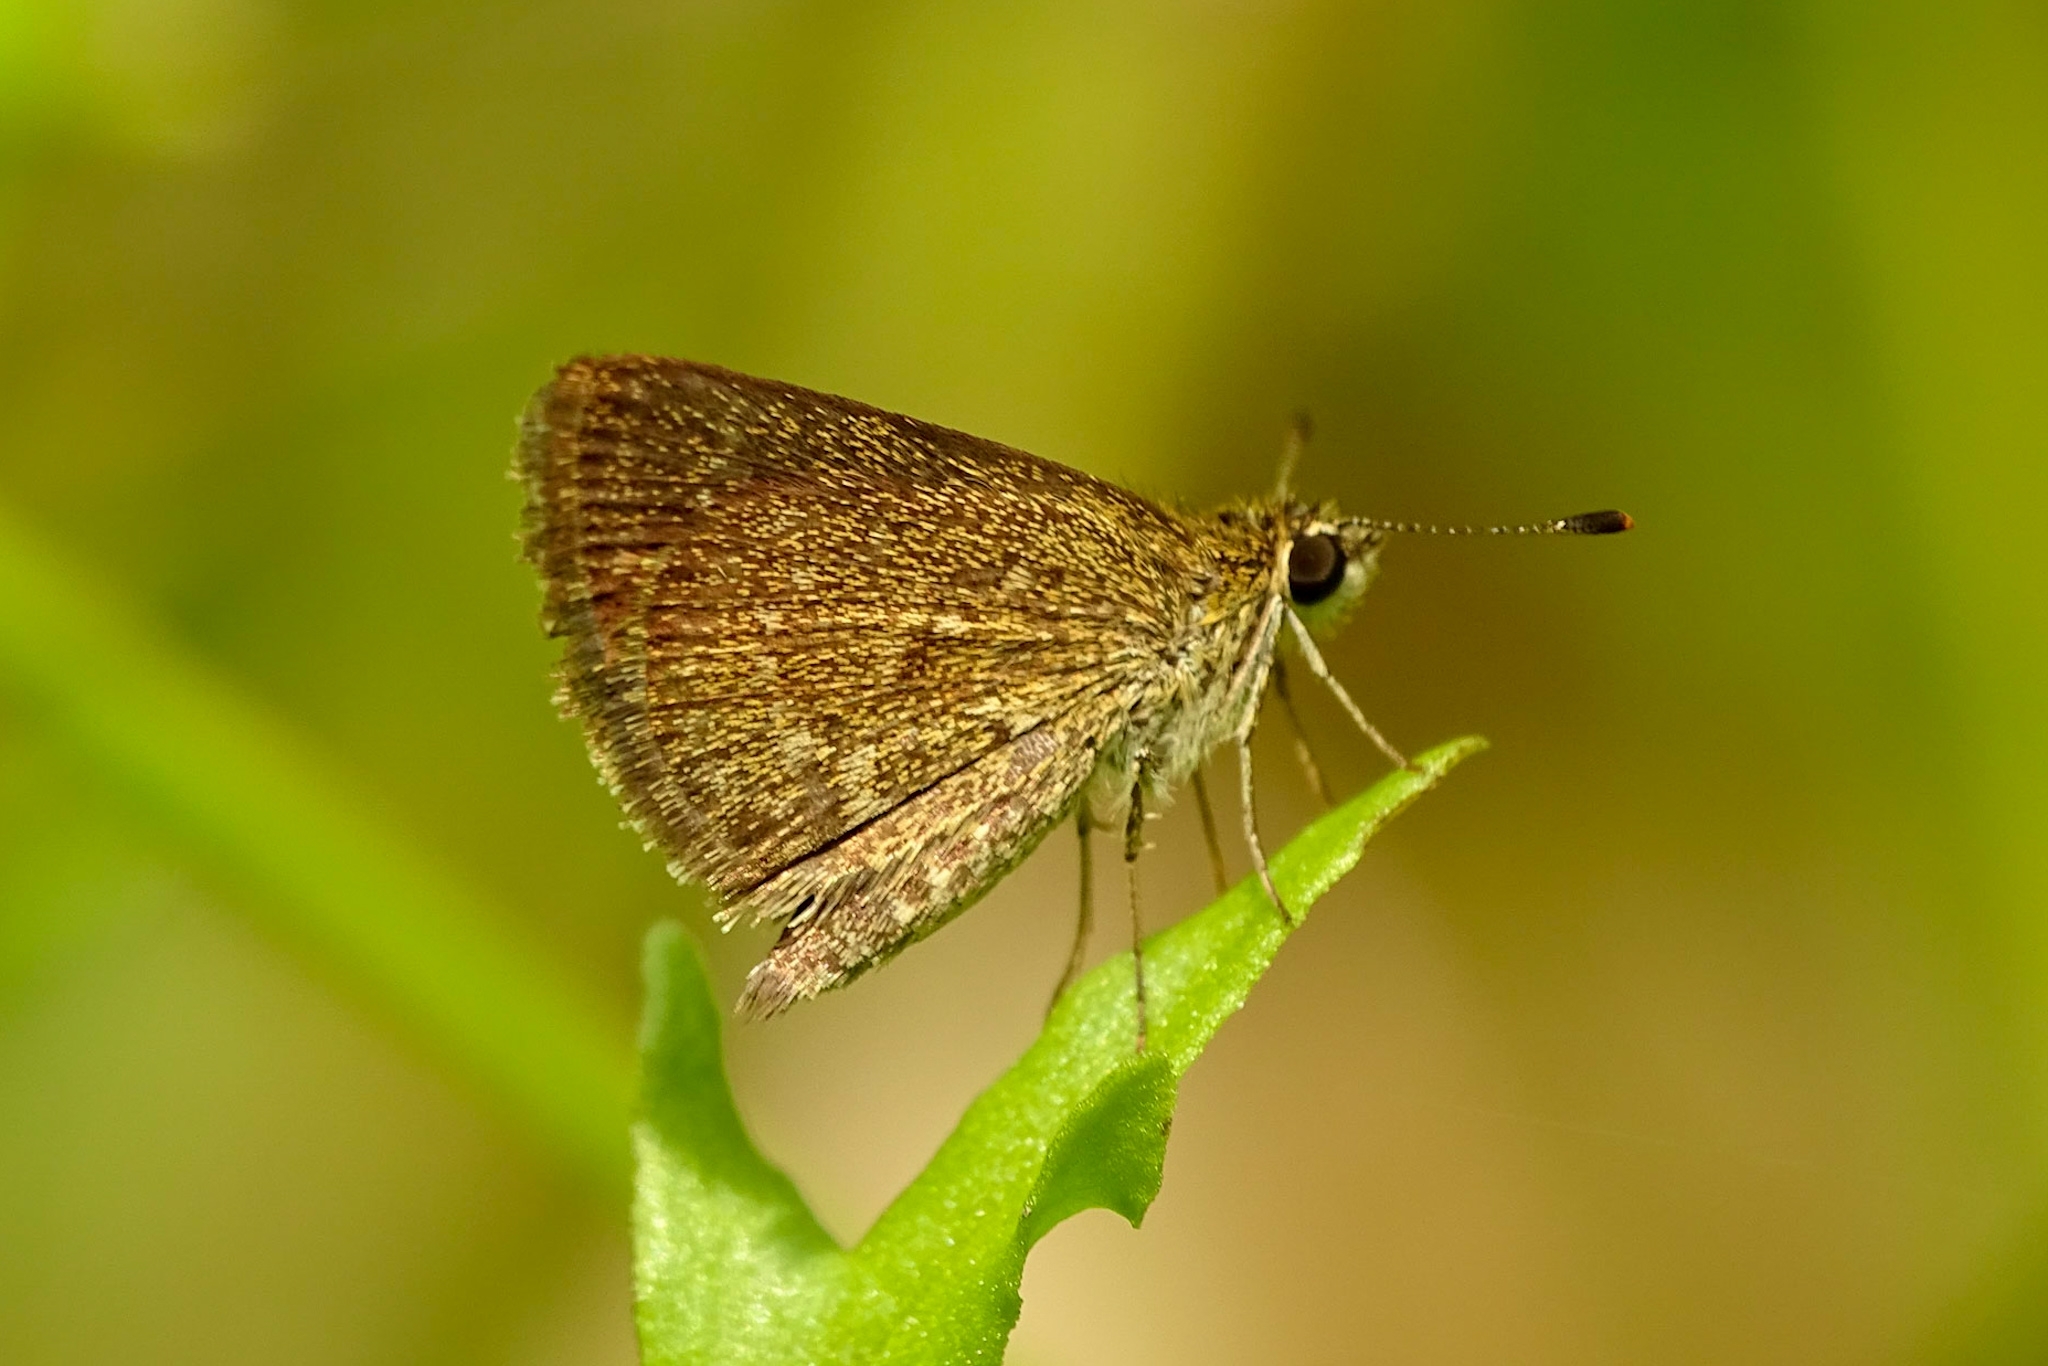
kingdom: Animalia
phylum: Arthropoda
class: Insecta
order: Lepidoptera
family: Hesperiidae
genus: Aeromachus
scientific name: Aeromachus pygmaeus
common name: Pygmy scrub hopper
